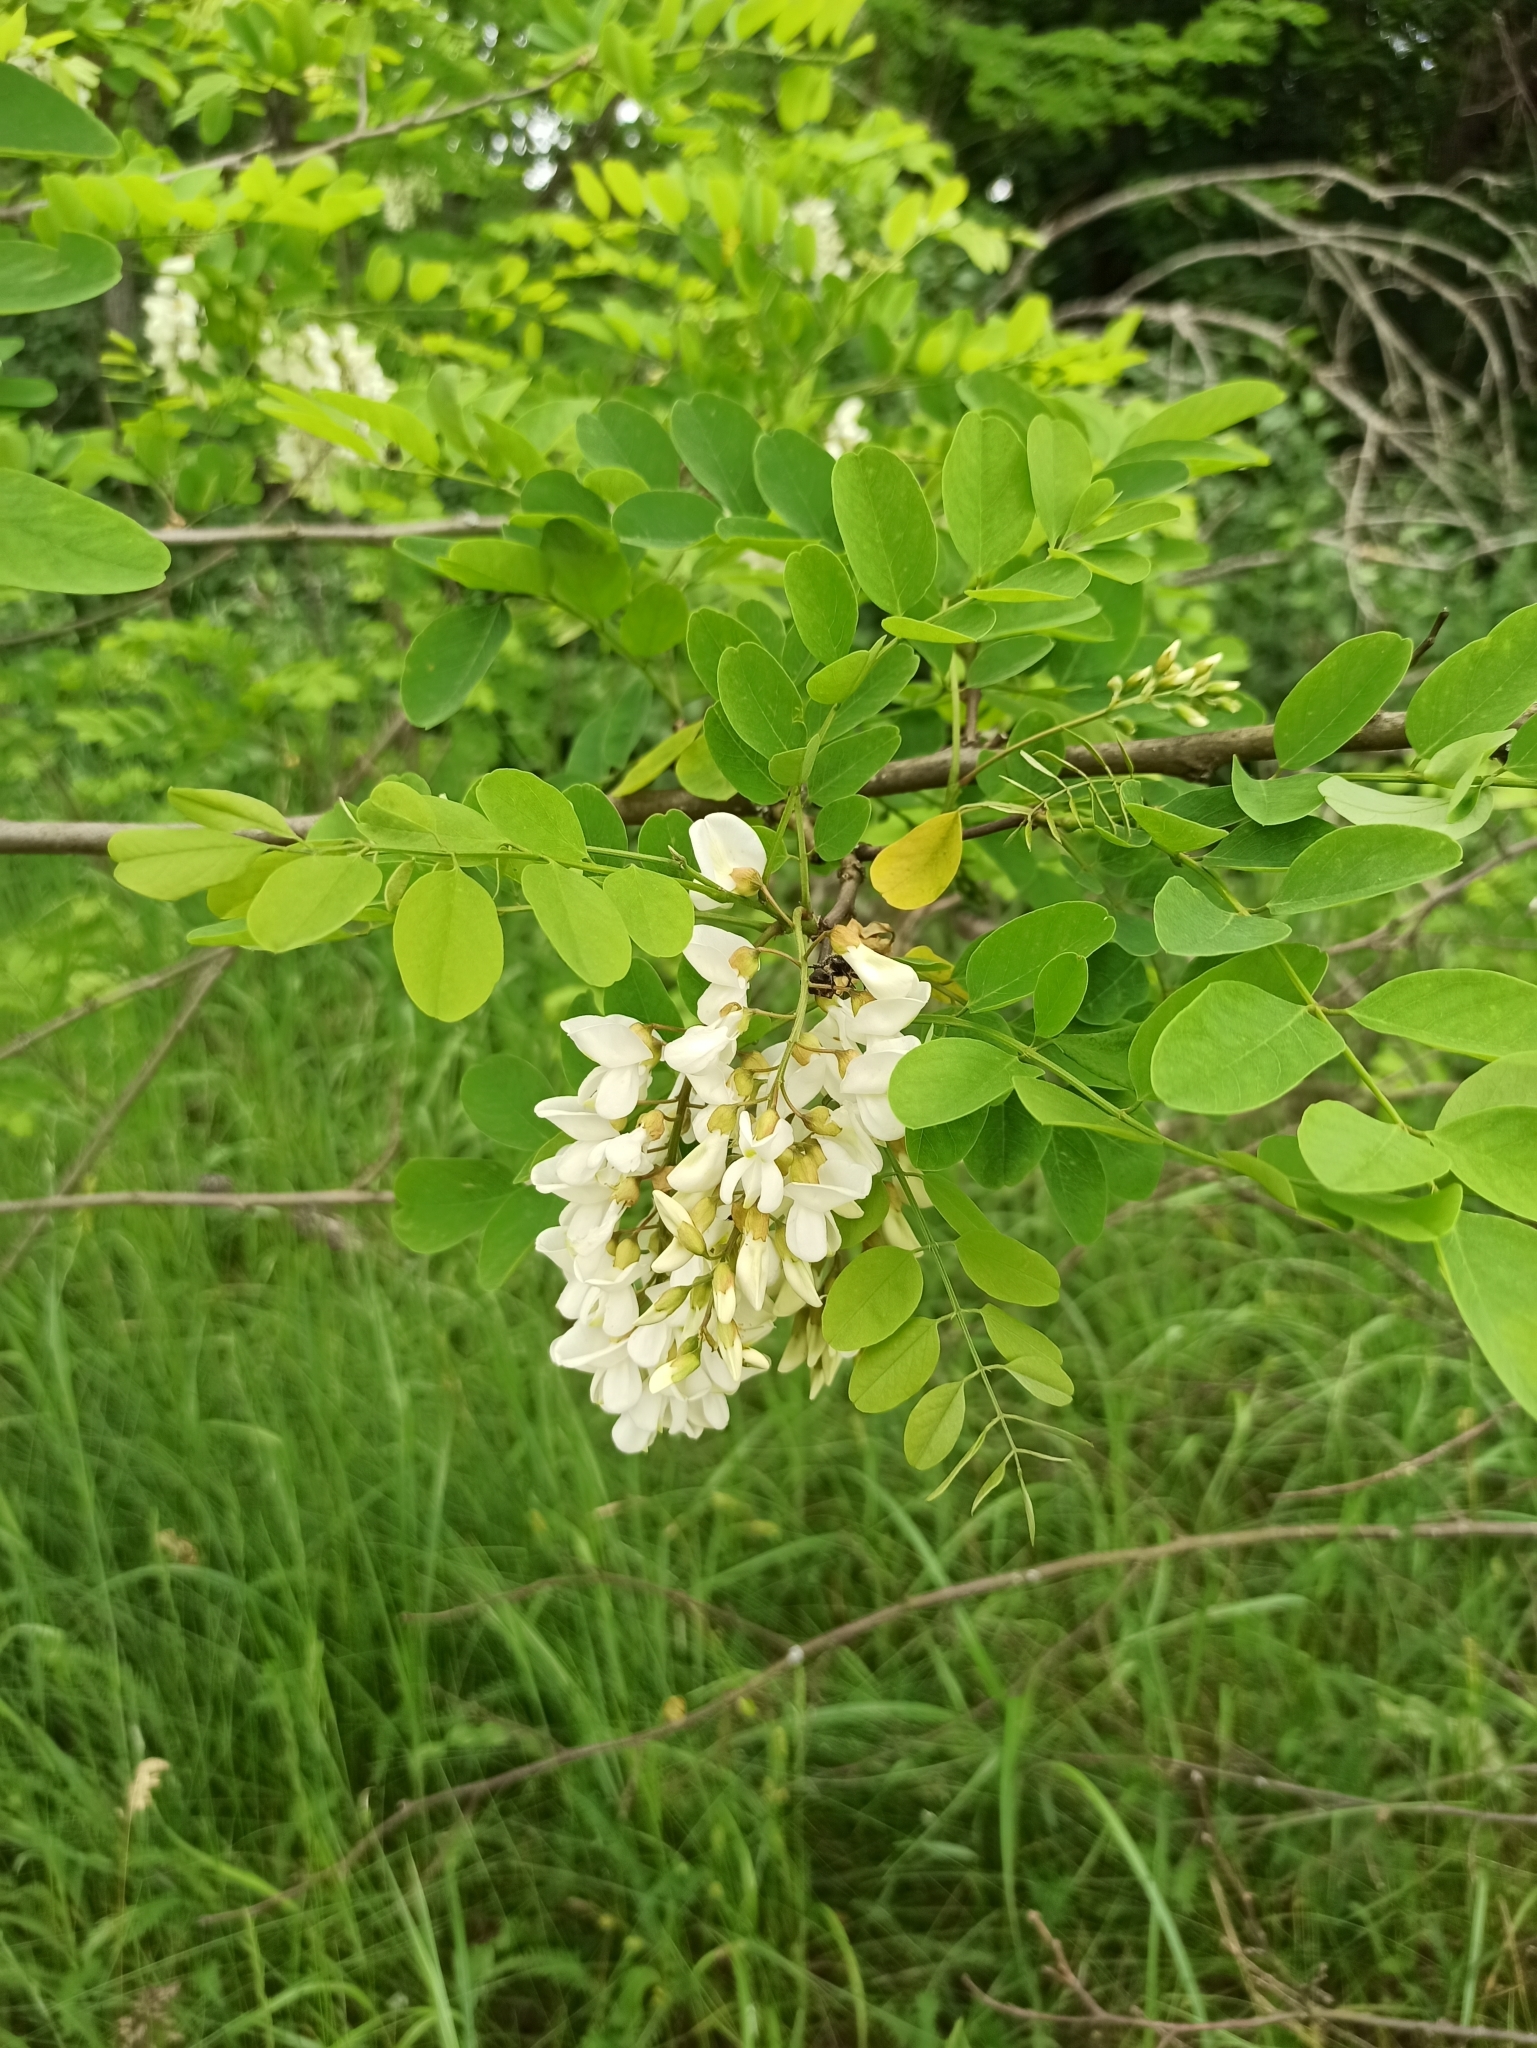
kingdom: Plantae
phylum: Tracheophyta
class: Magnoliopsida
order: Fabales
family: Fabaceae
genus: Robinia
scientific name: Robinia pseudoacacia
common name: Black locust
